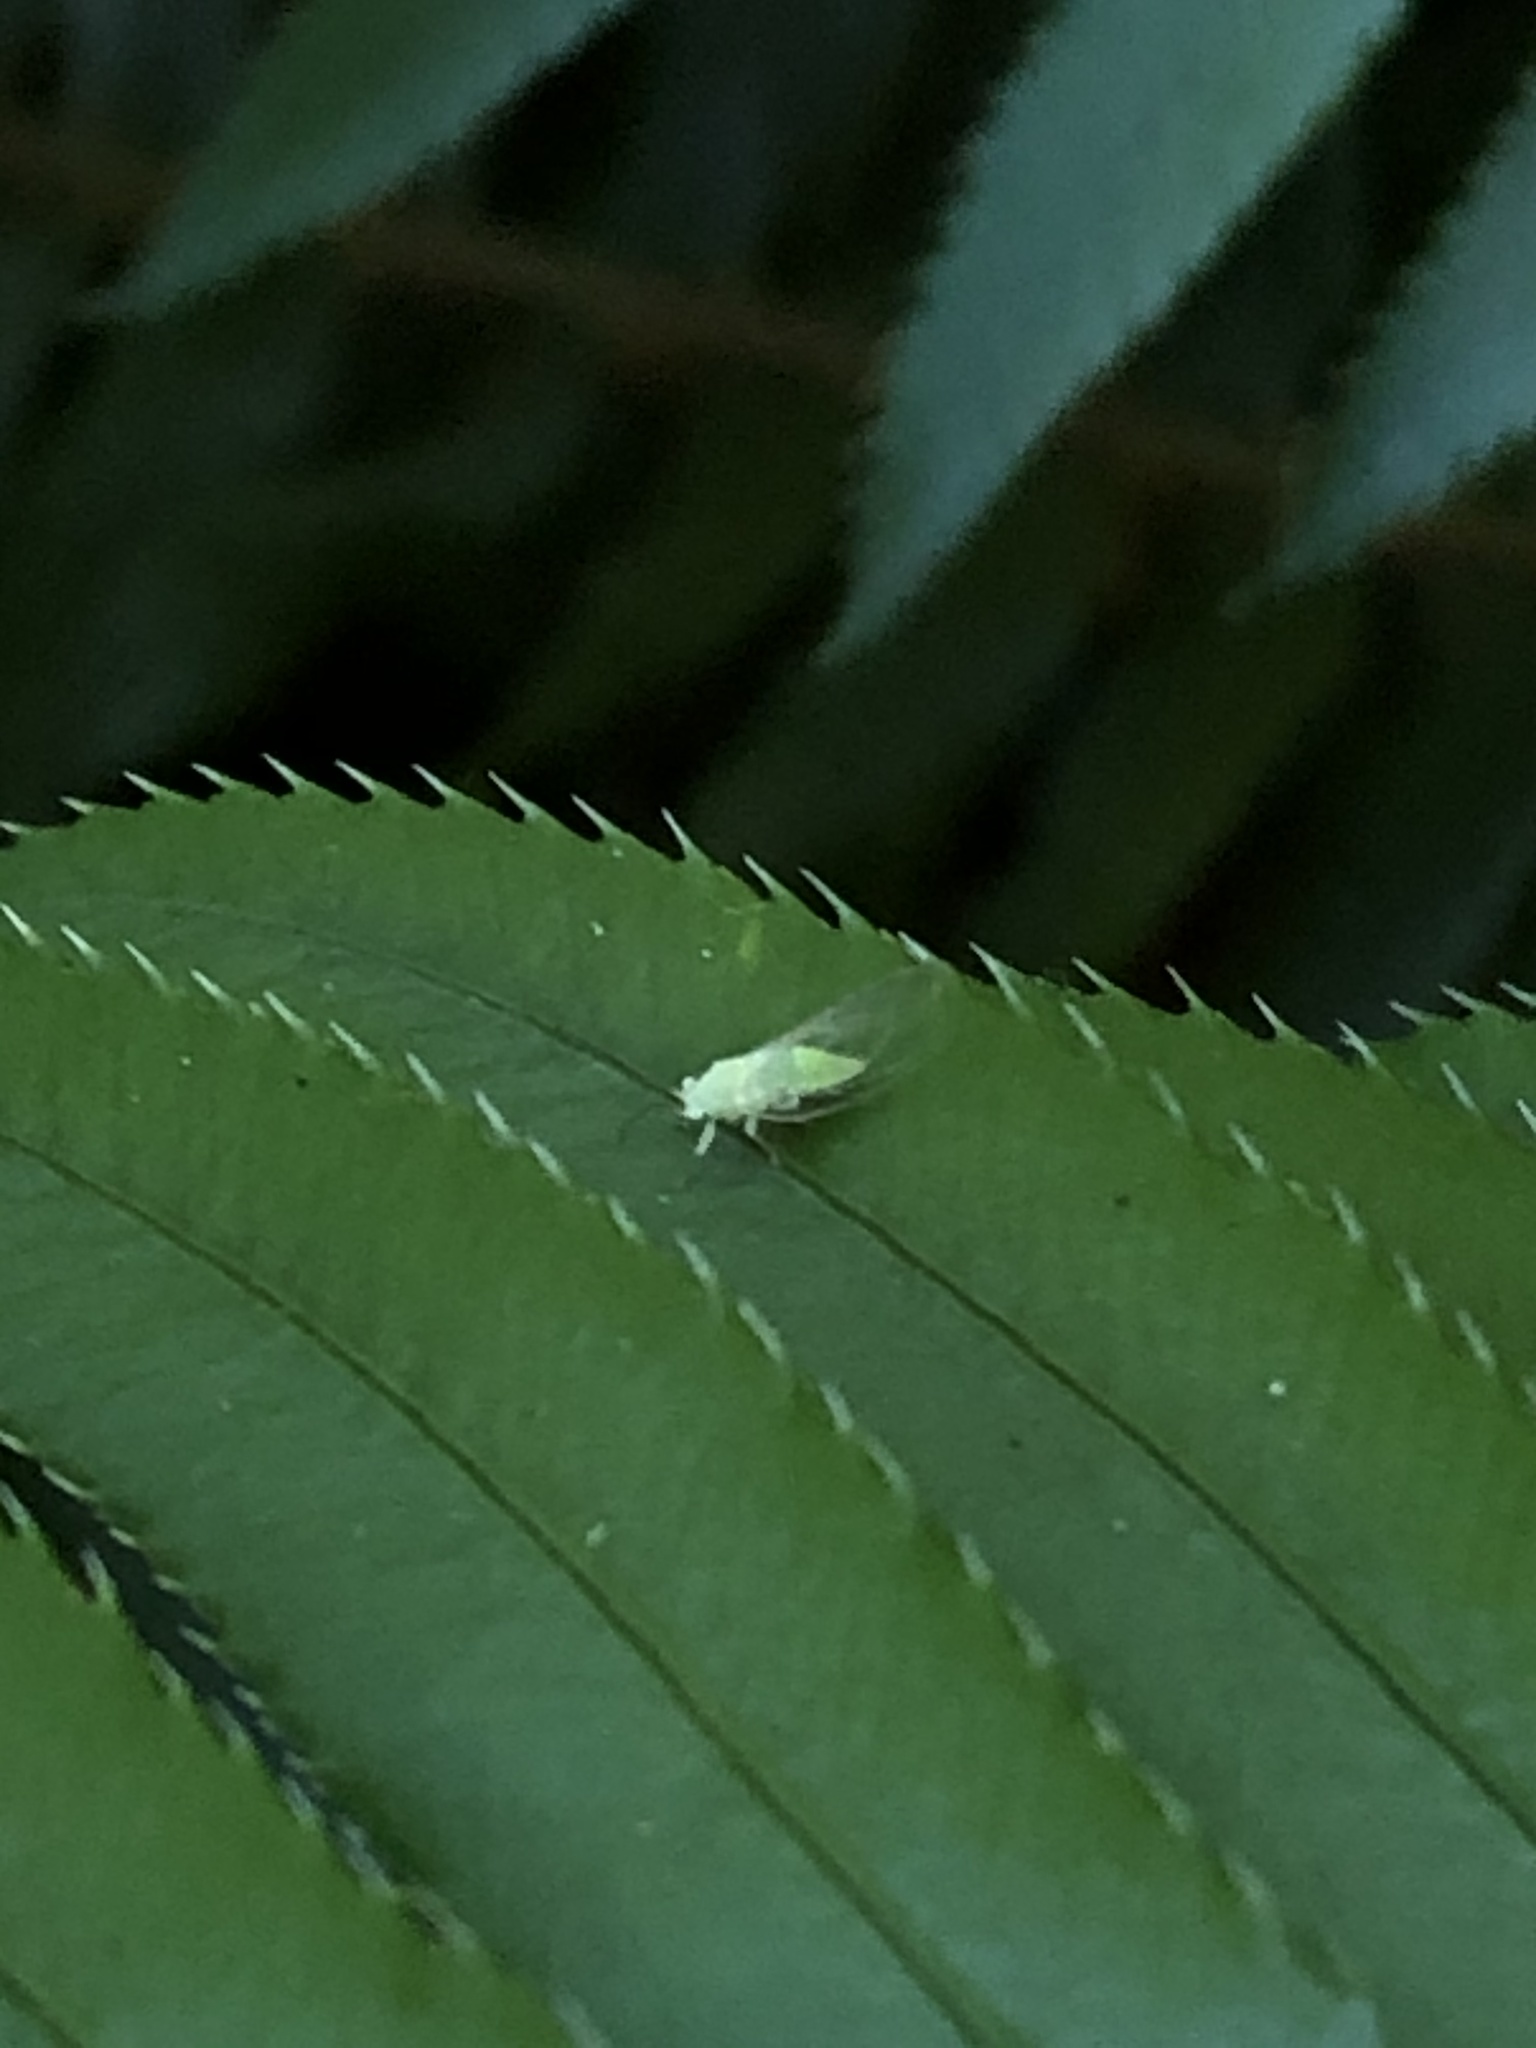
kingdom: Animalia
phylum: Arthropoda
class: Insecta
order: Hemiptera
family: Psyllidae
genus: Psylla
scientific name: Psylla sanguinea
